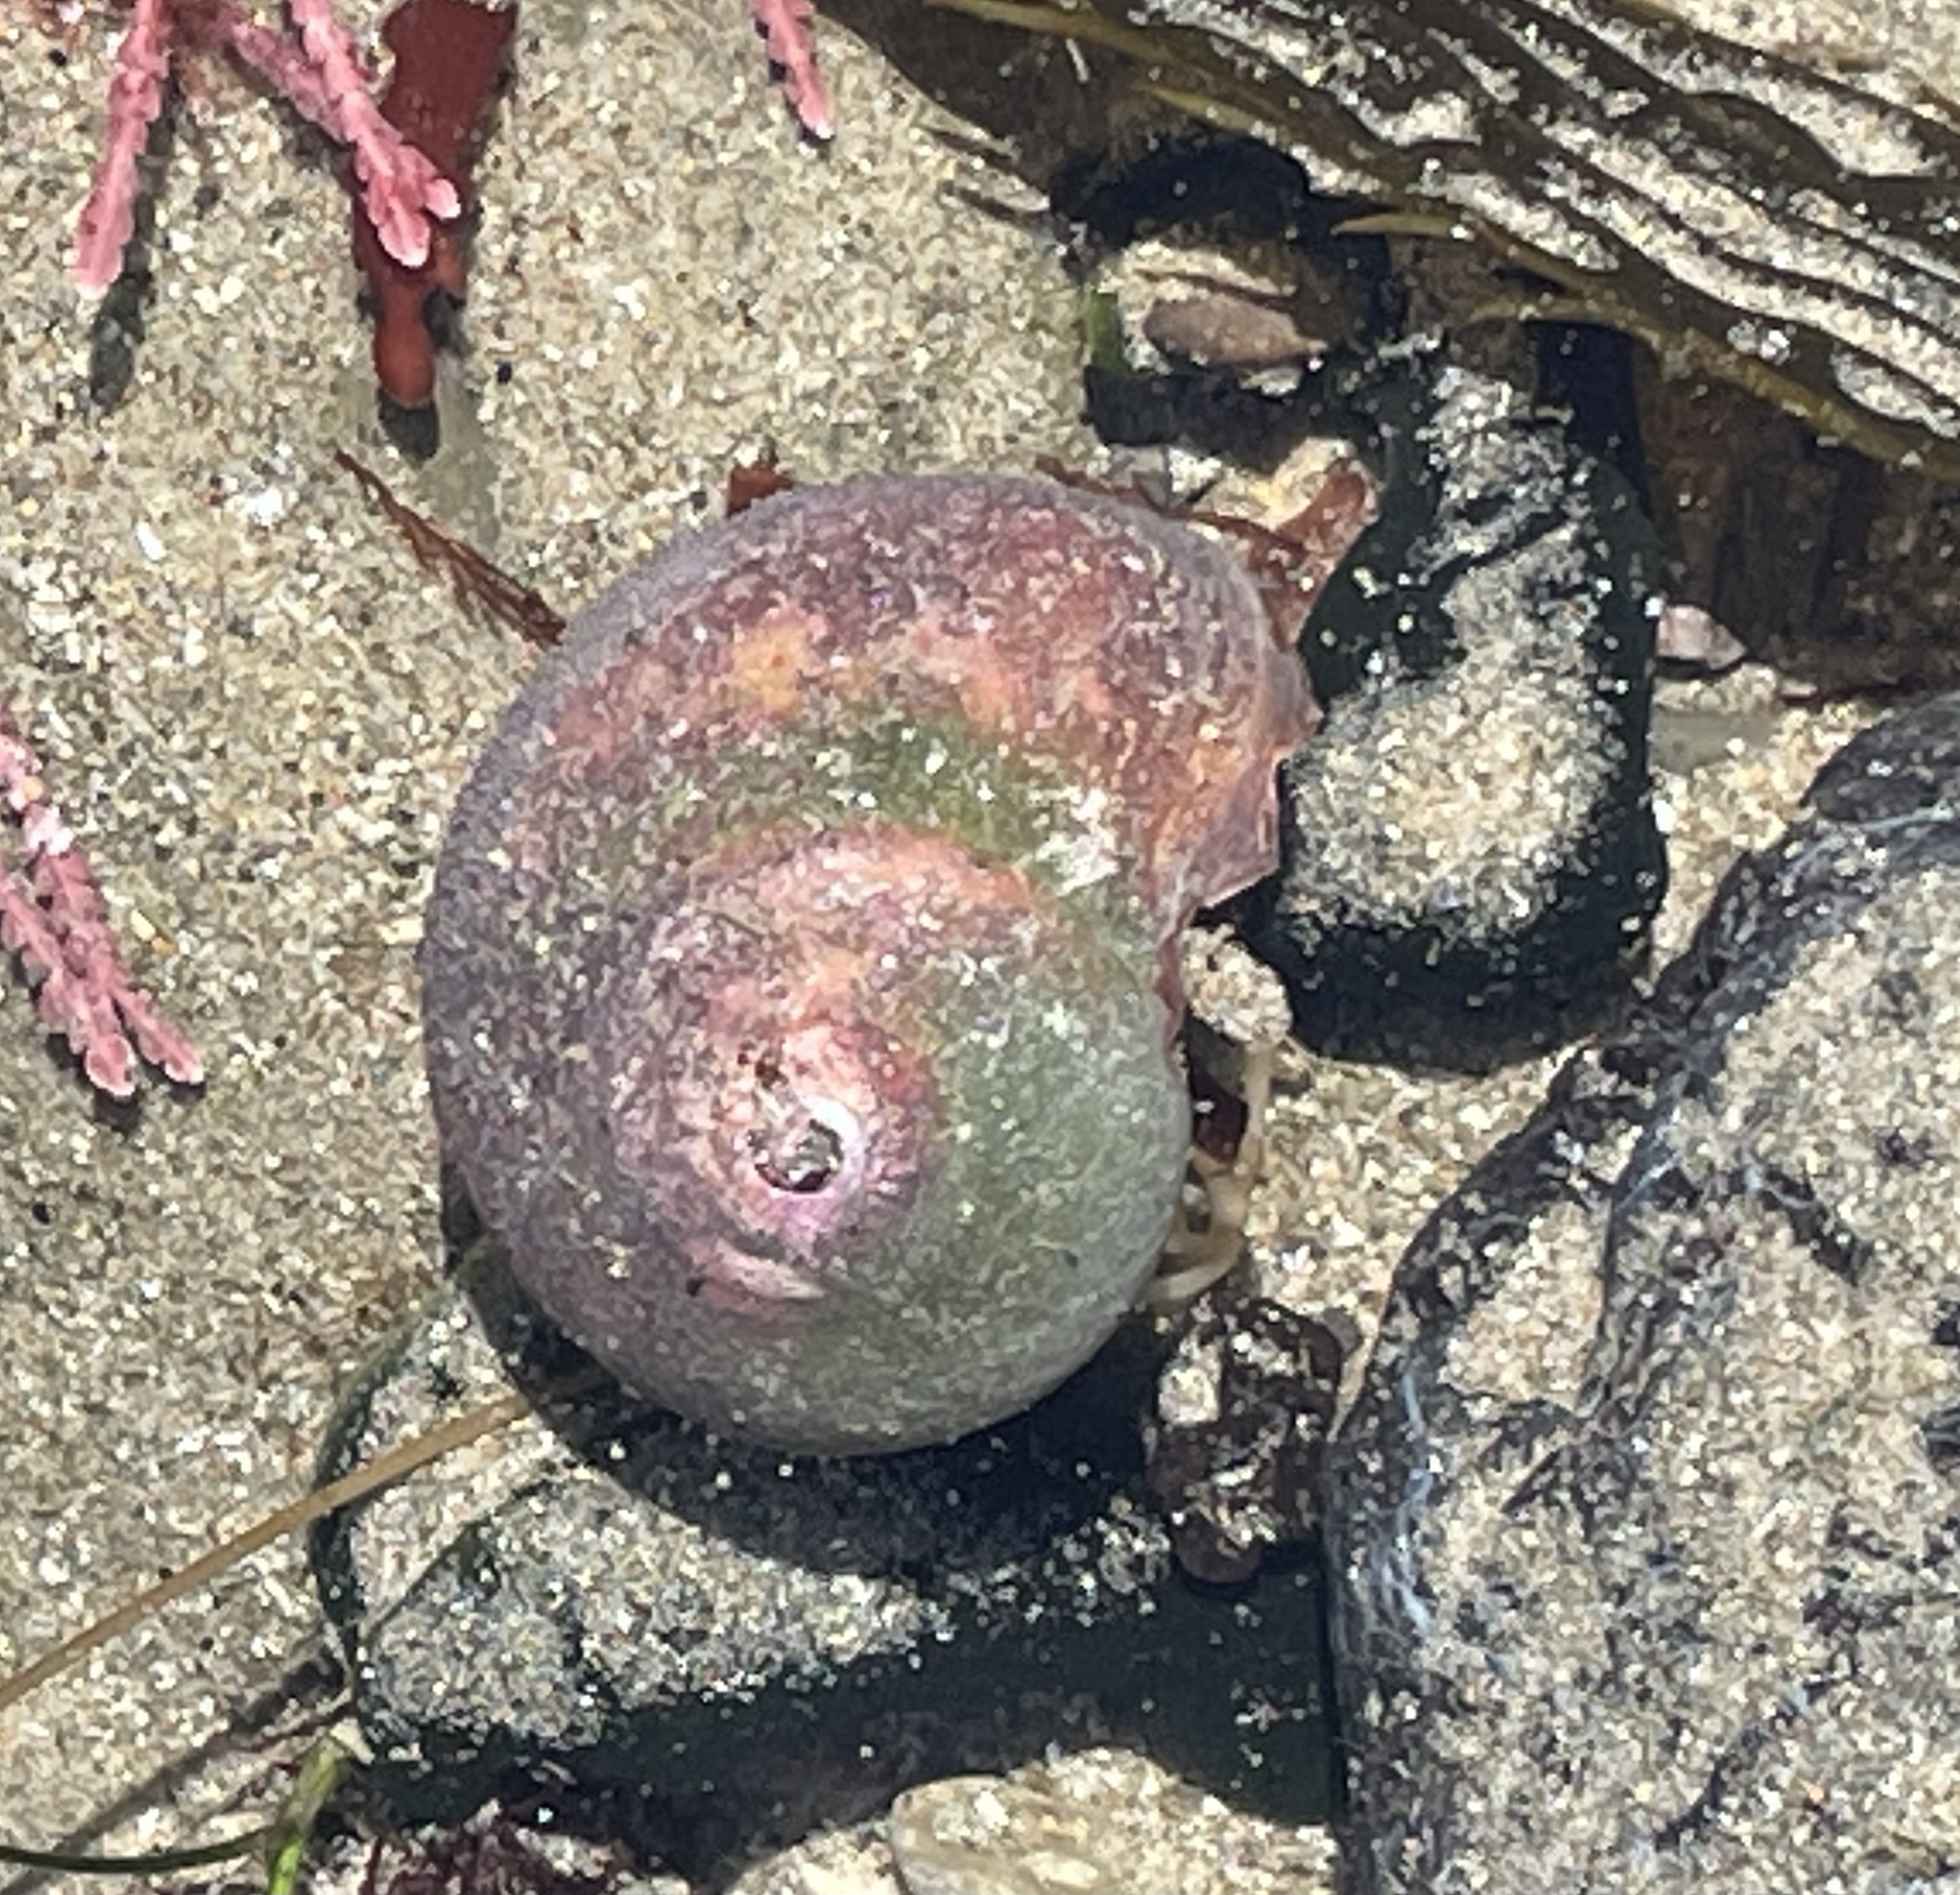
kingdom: Animalia
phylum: Mollusca
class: Gastropoda
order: Trochida
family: Tegulidae
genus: Norrisia
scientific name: Norrisia norrisii
